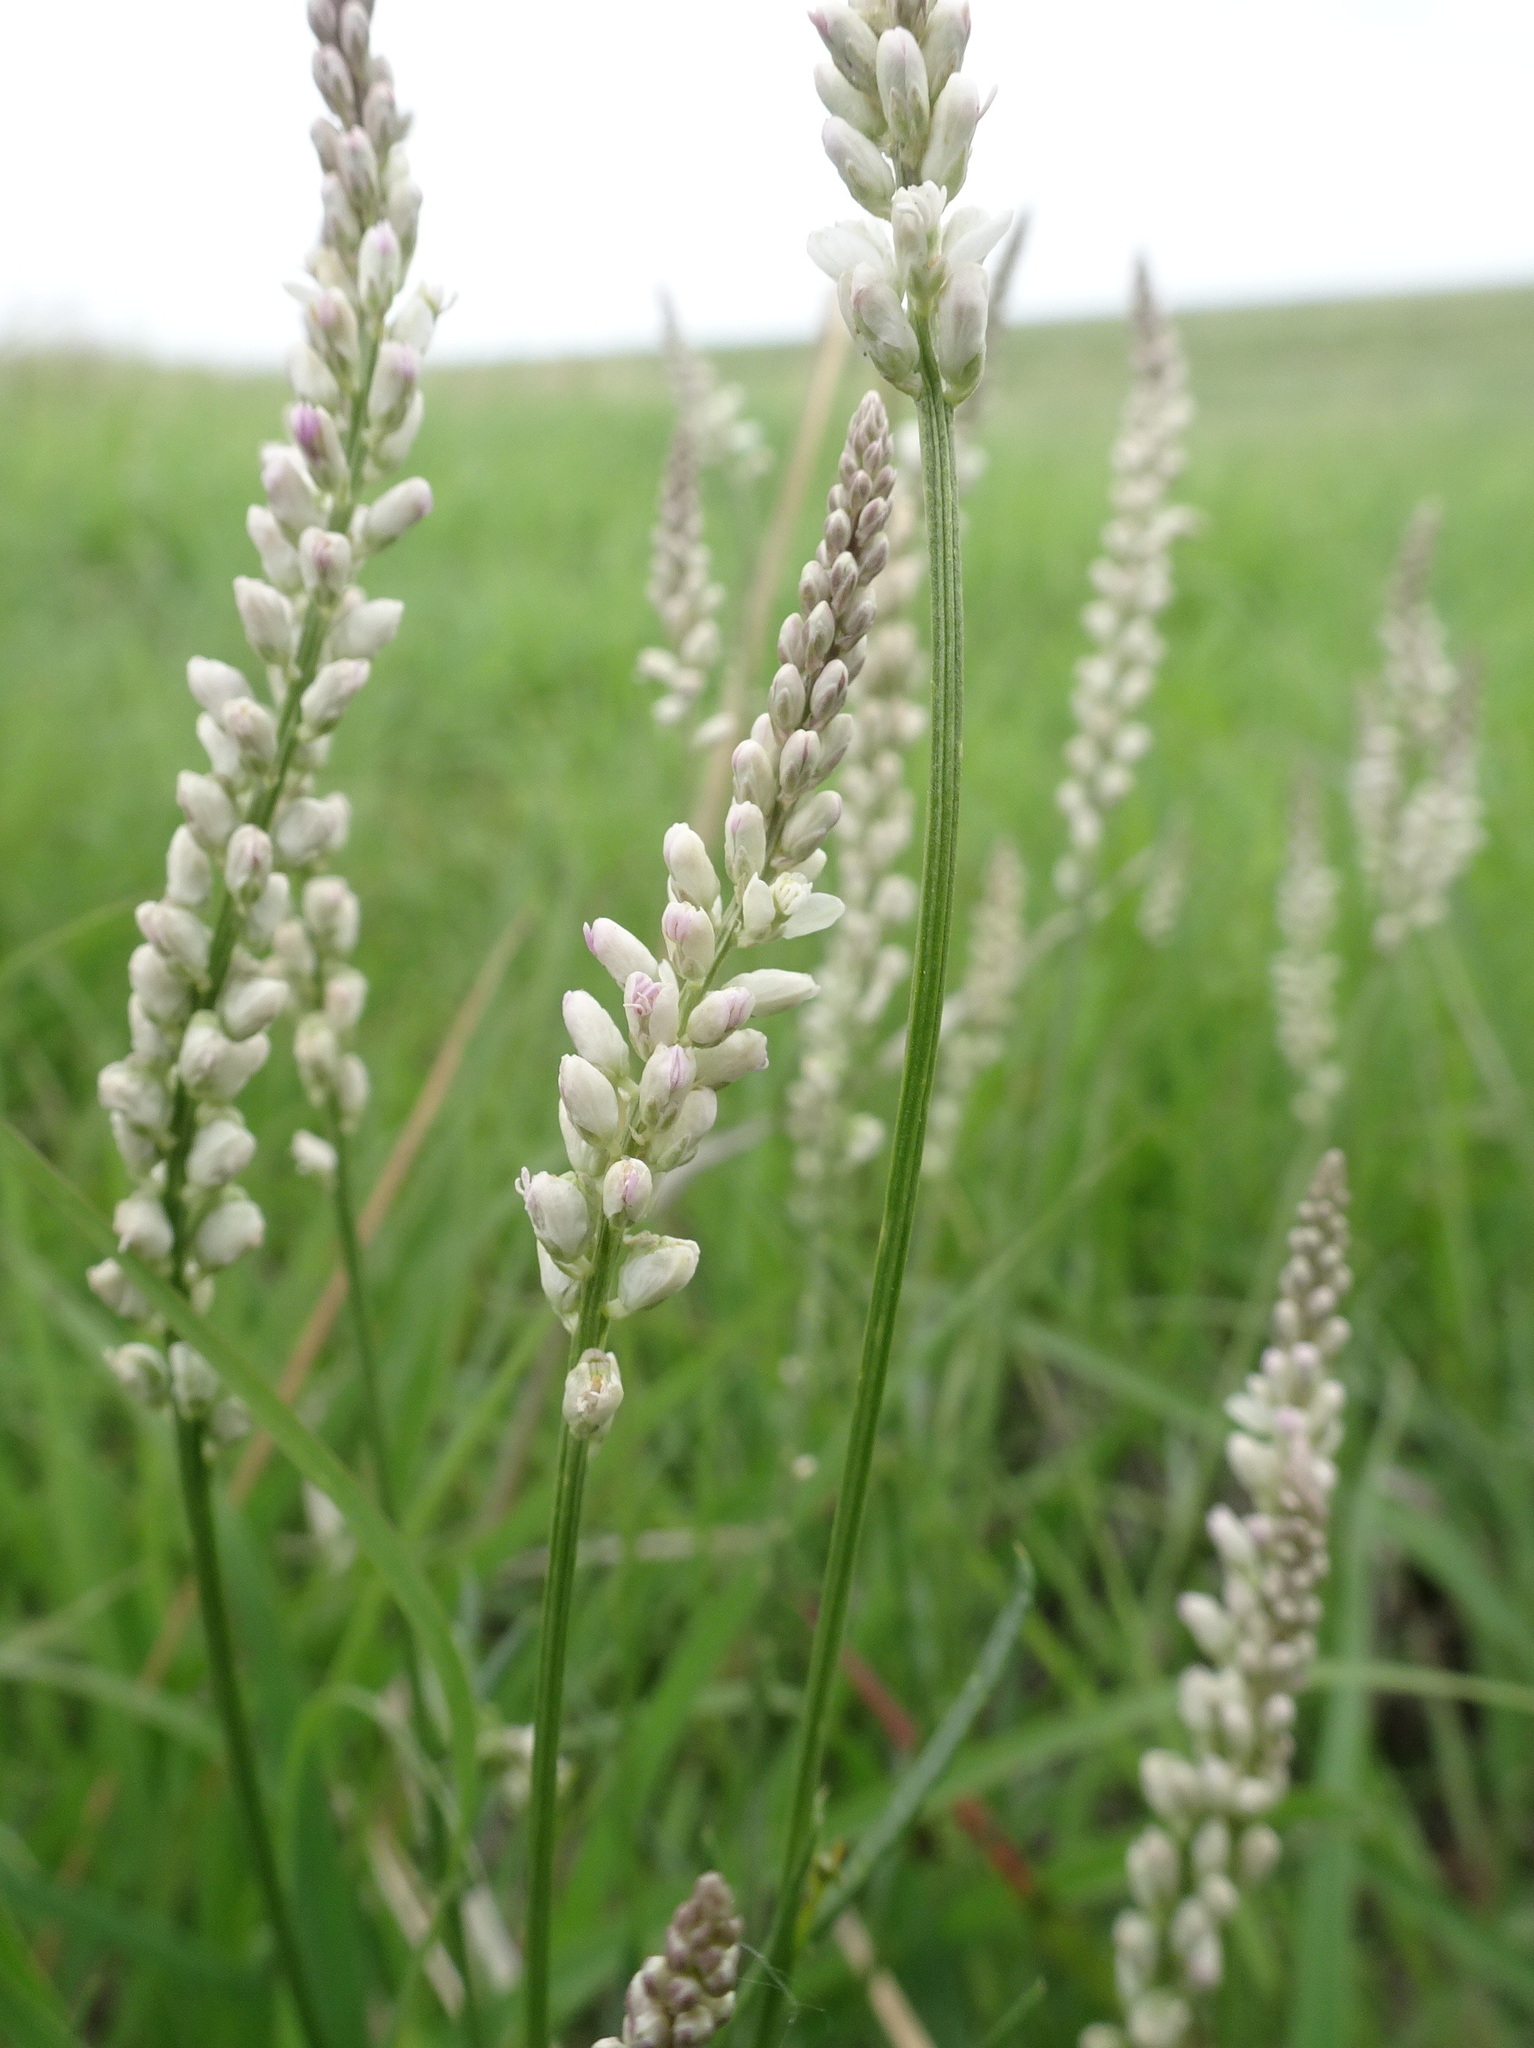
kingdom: Plantae
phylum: Tracheophyta
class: Magnoliopsida
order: Fabales
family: Polygalaceae
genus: Polygala
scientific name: Polygala alba
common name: White milkwort
